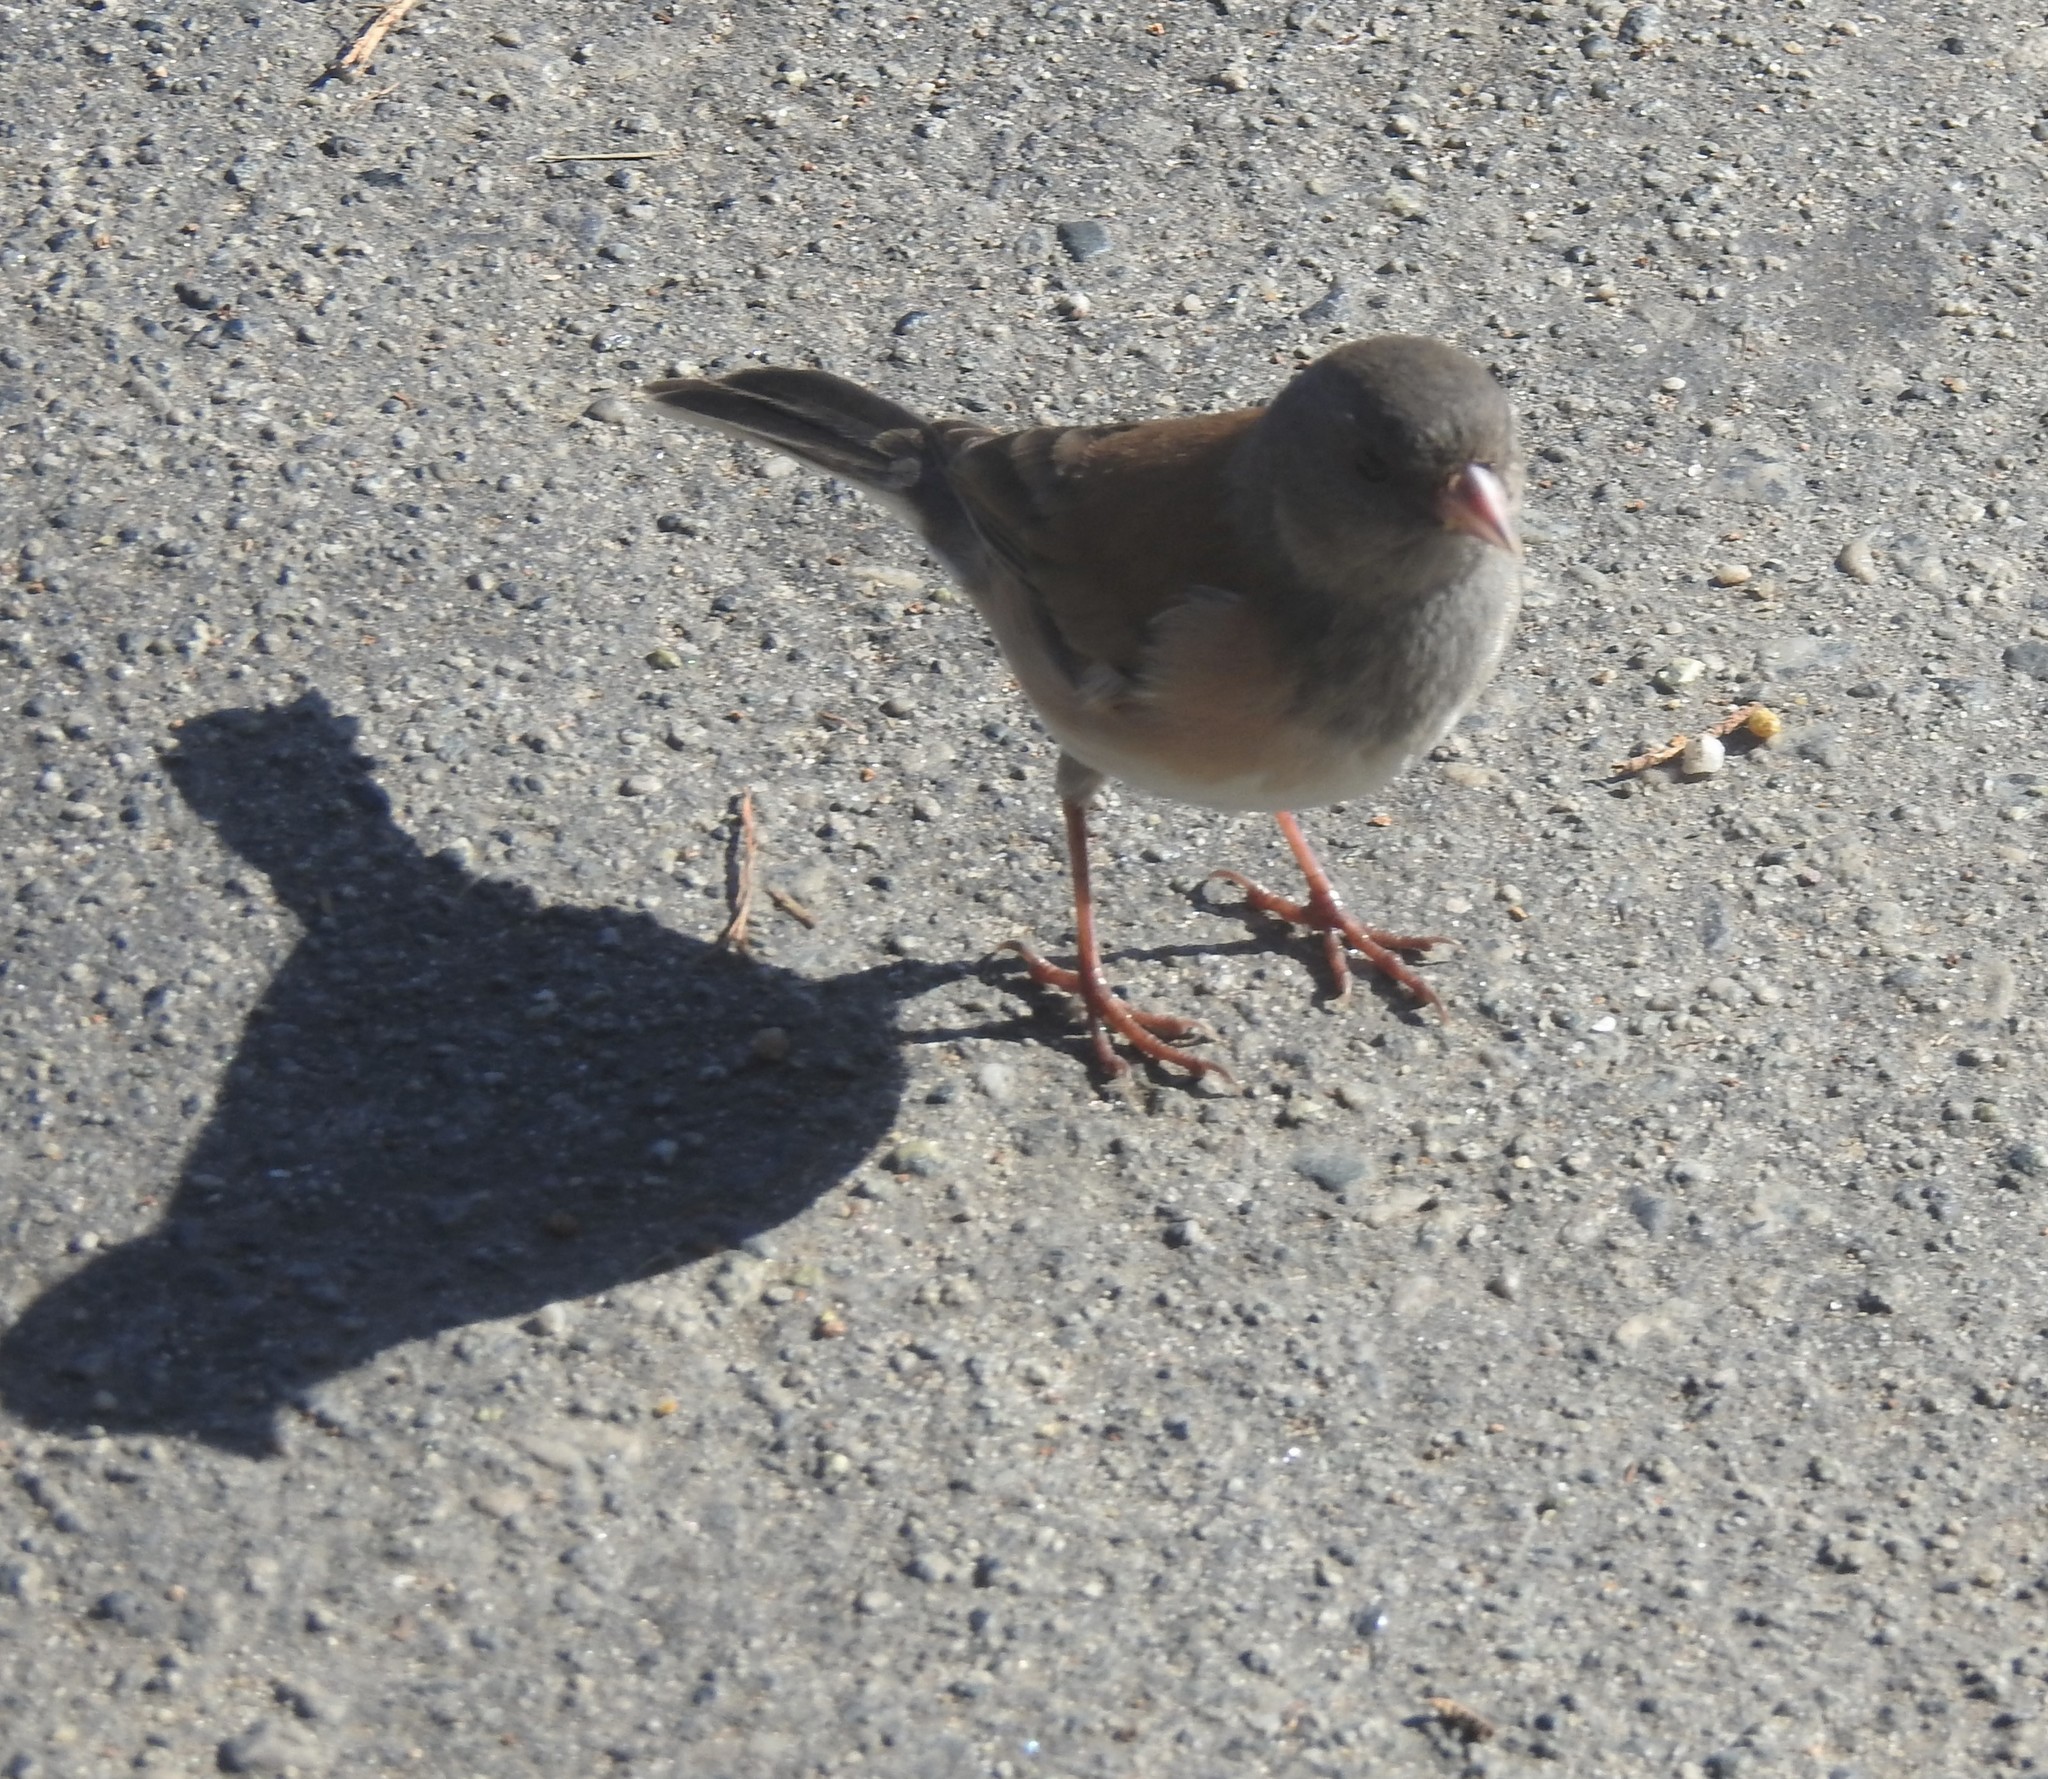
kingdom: Animalia
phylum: Chordata
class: Aves
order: Passeriformes
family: Passerellidae
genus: Junco
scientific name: Junco hyemalis
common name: Dark-eyed junco
